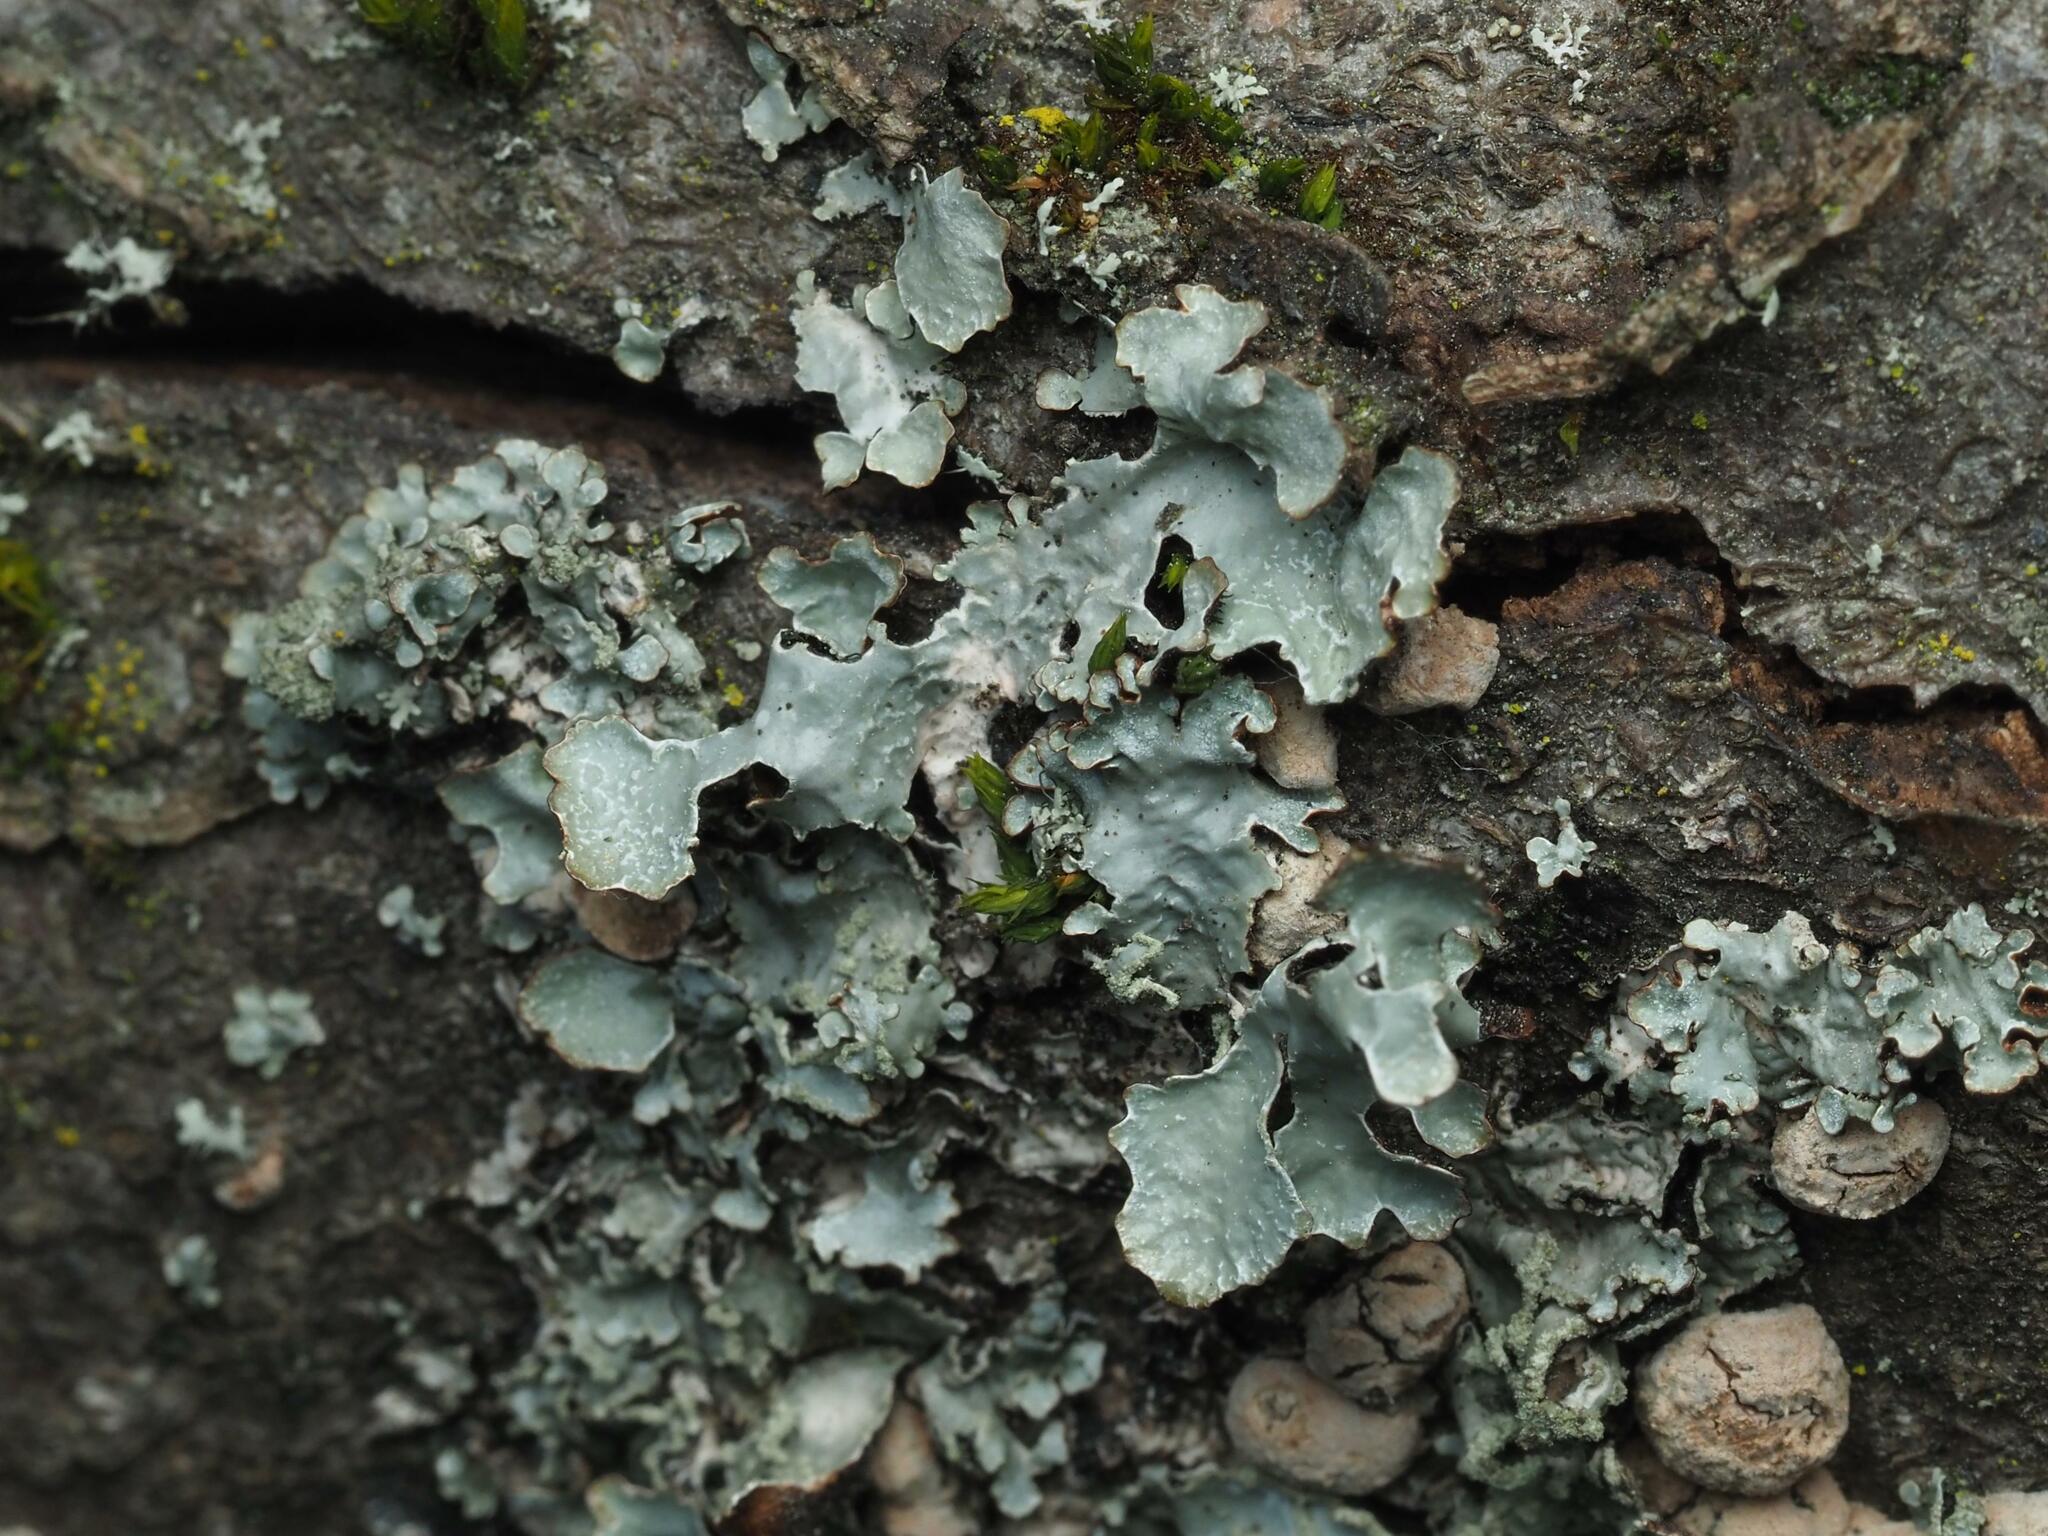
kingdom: Fungi
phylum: Ascomycota
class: Lecanoromycetes
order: Lecanorales
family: Parmeliaceae
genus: Parmelia
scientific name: Parmelia sulcata
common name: Netted shield lichen
